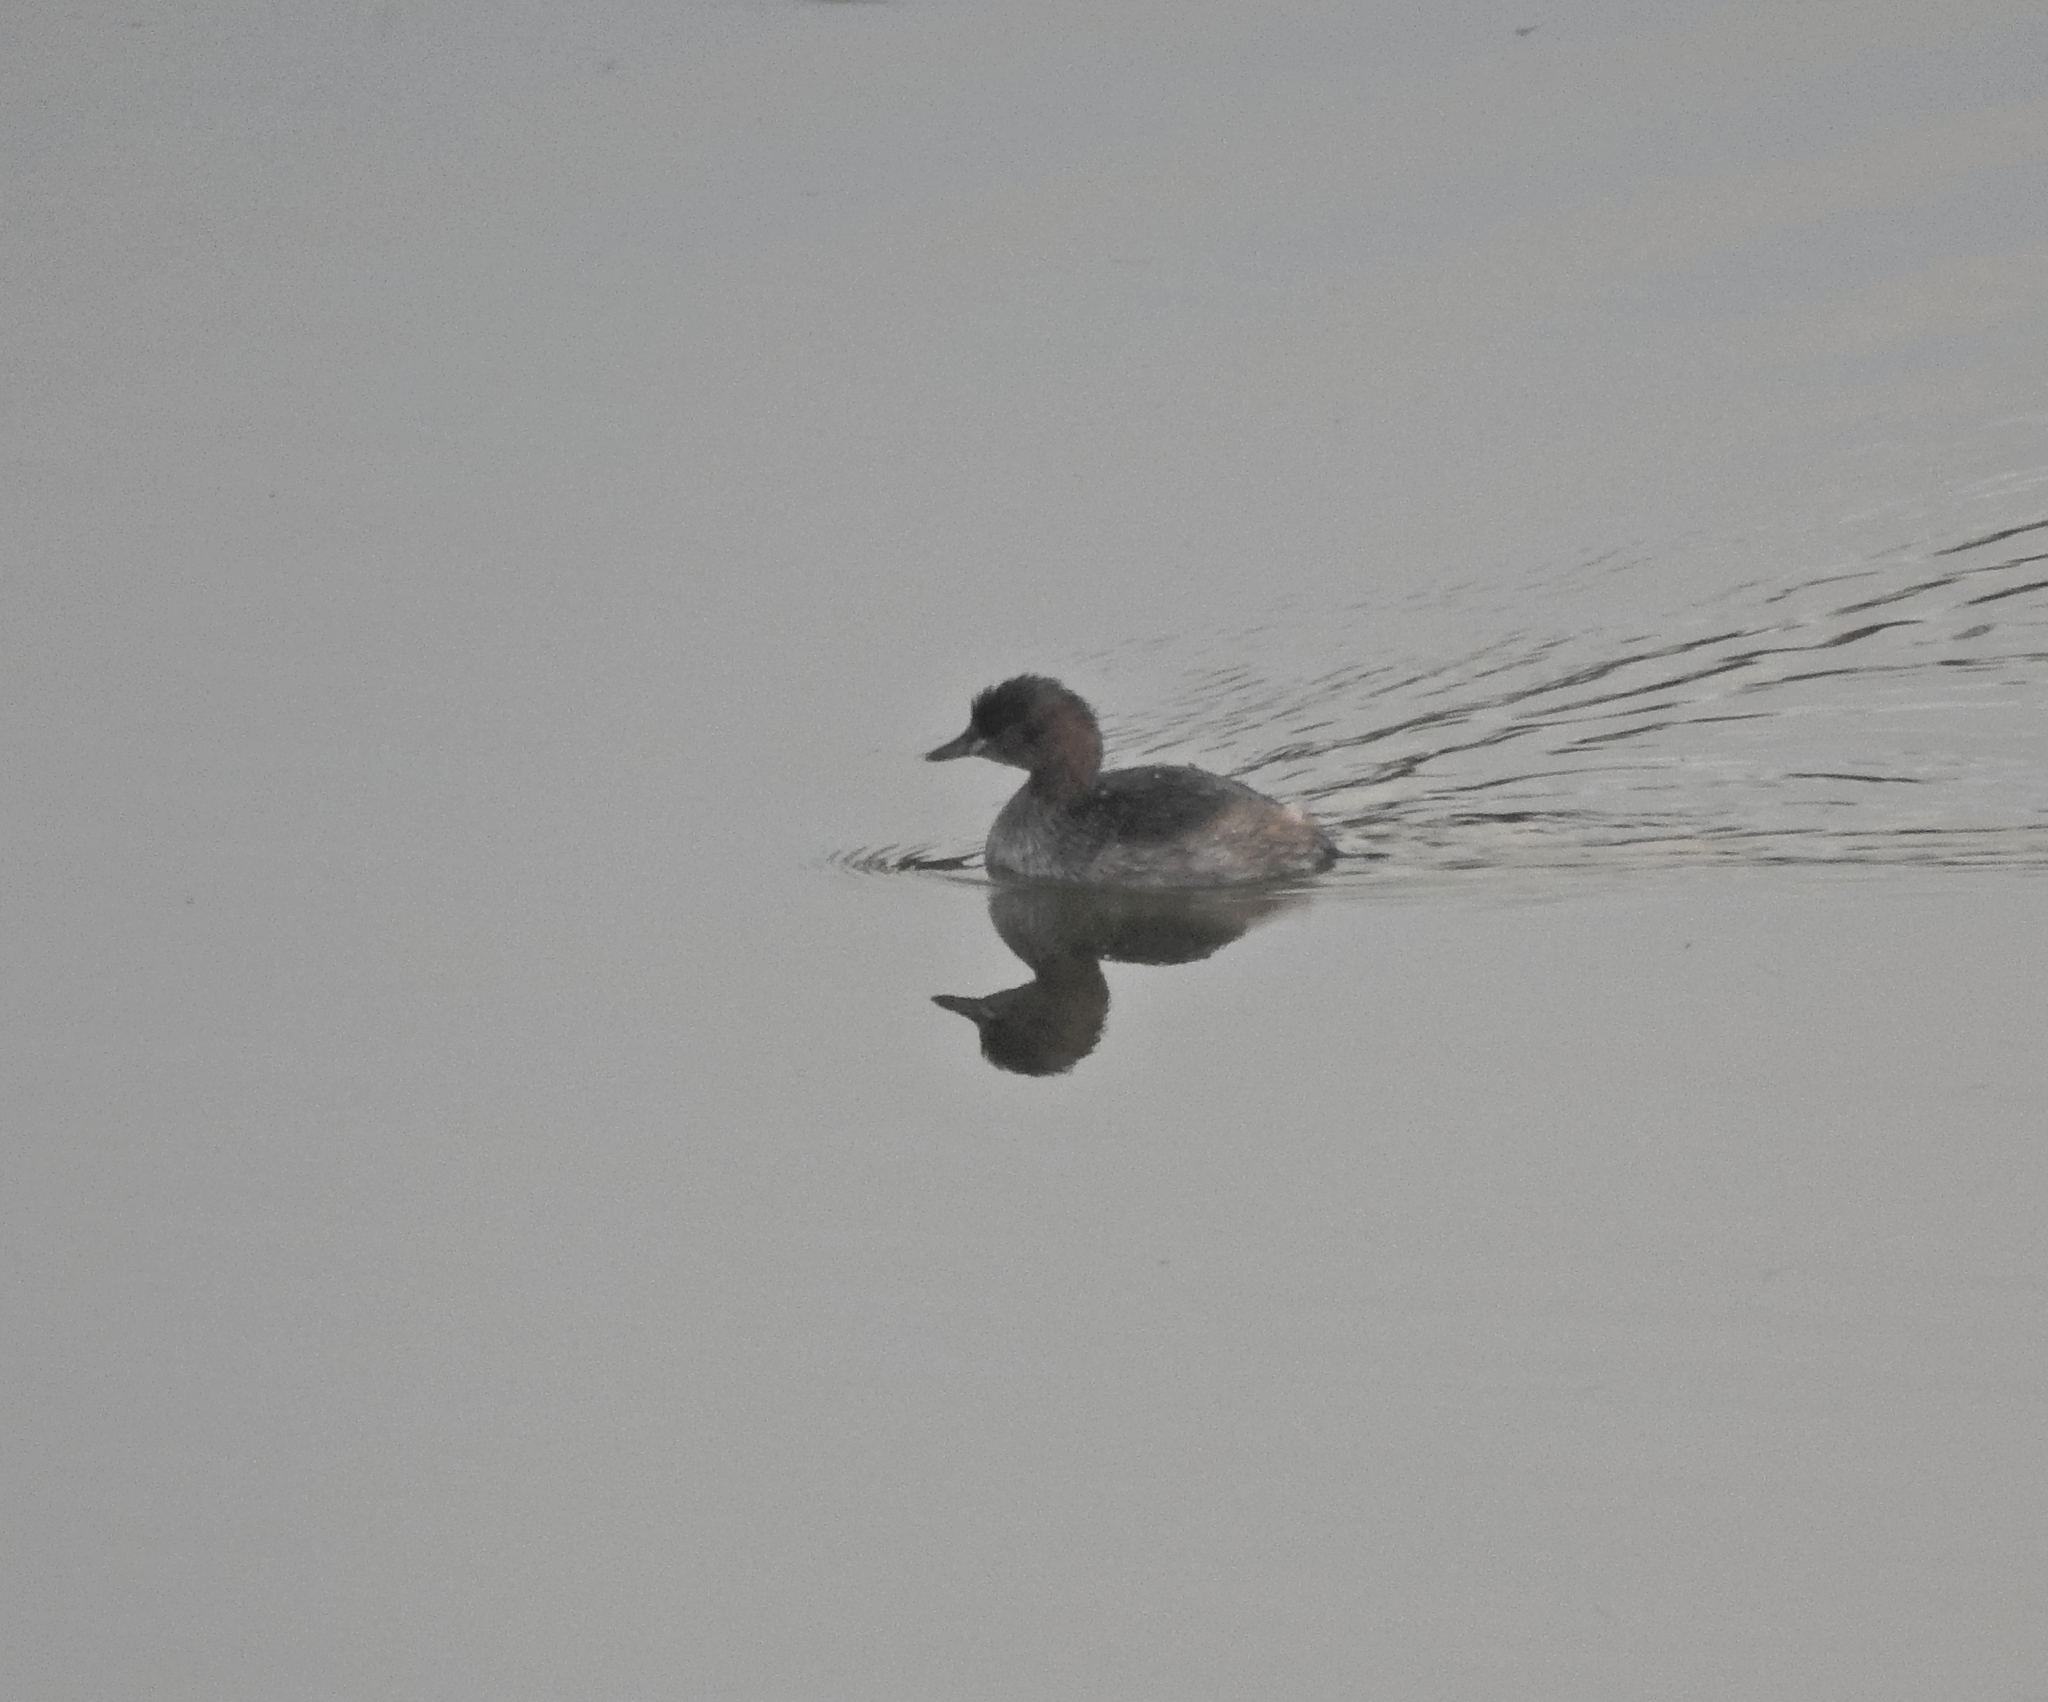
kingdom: Animalia
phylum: Chordata
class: Aves
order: Podicipediformes
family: Podicipedidae
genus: Tachybaptus
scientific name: Tachybaptus ruficollis
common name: Little grebe
